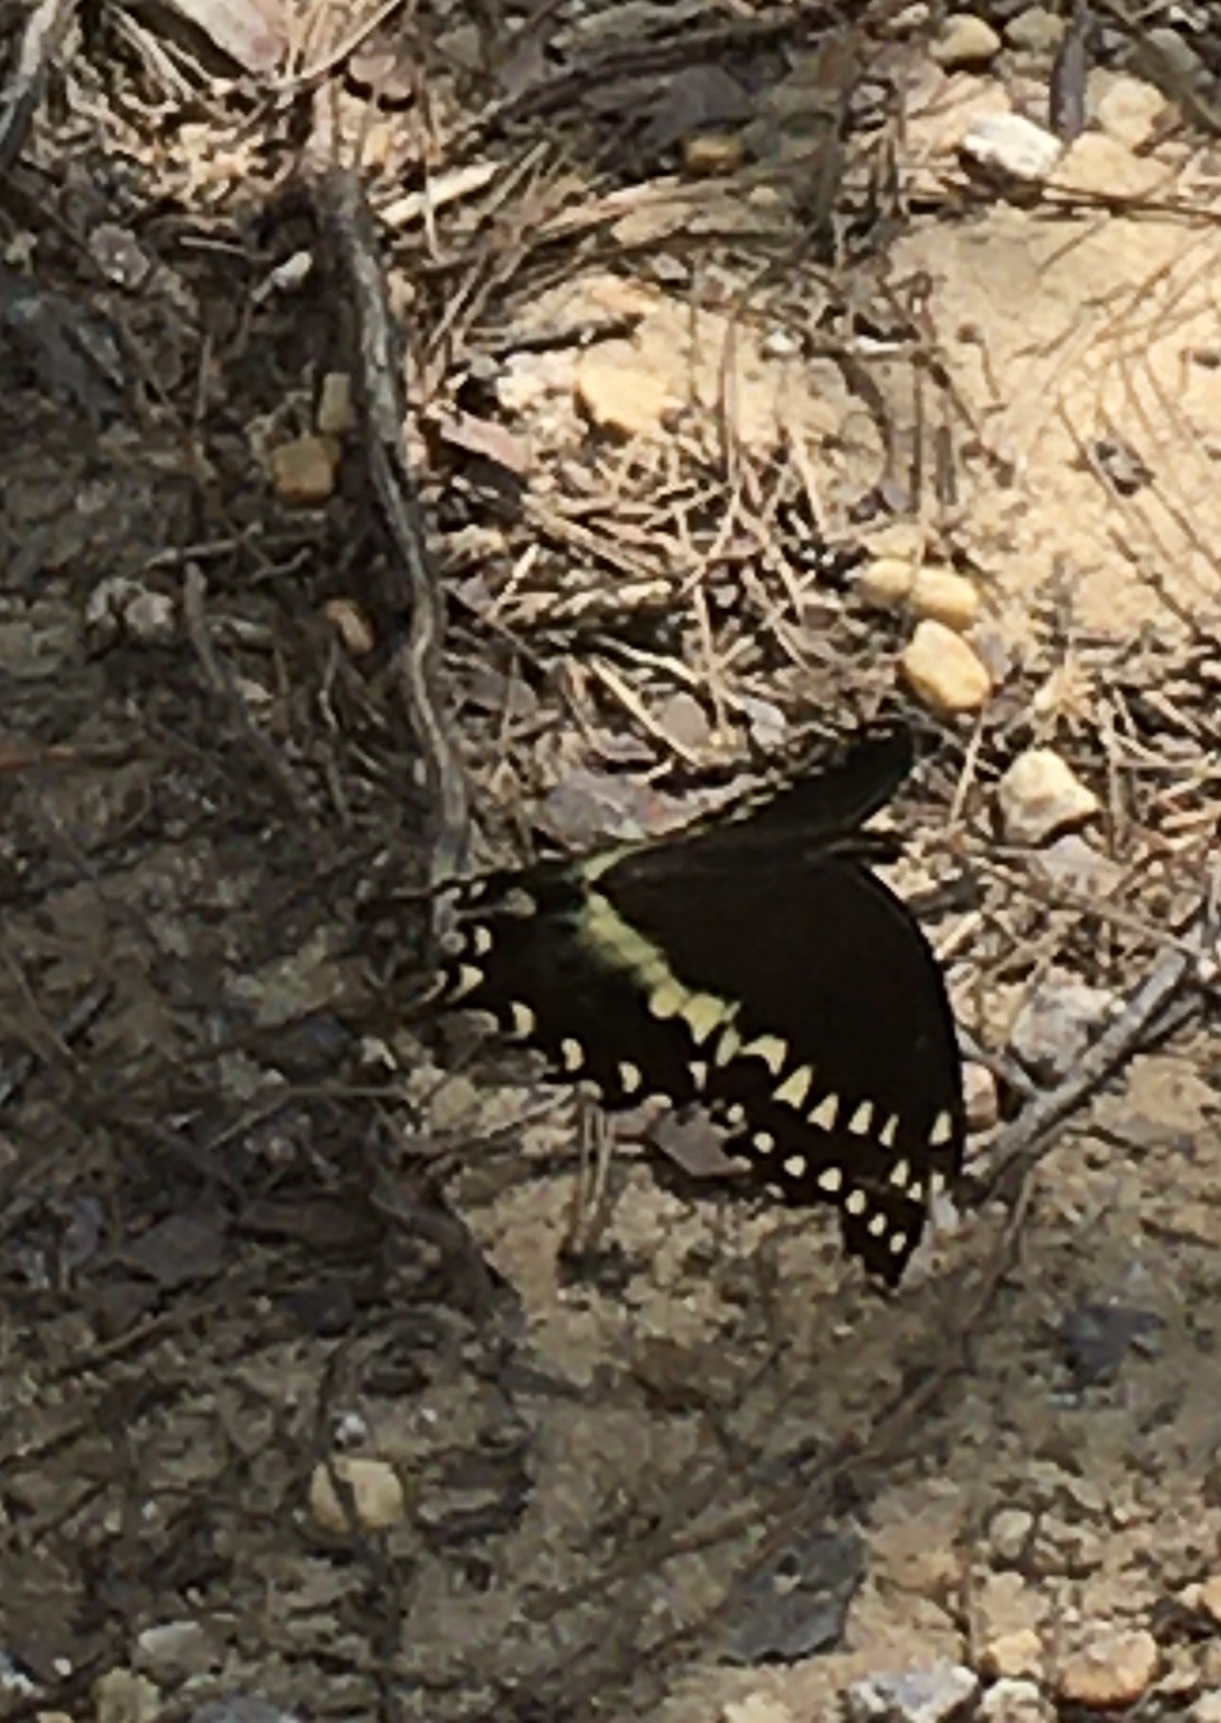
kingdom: Animalia
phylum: Arthropoda
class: Insecta
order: Lepidoptera
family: Papilionidae
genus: Papilio
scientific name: Papilio palamedes
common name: Palamedes swallowtail
